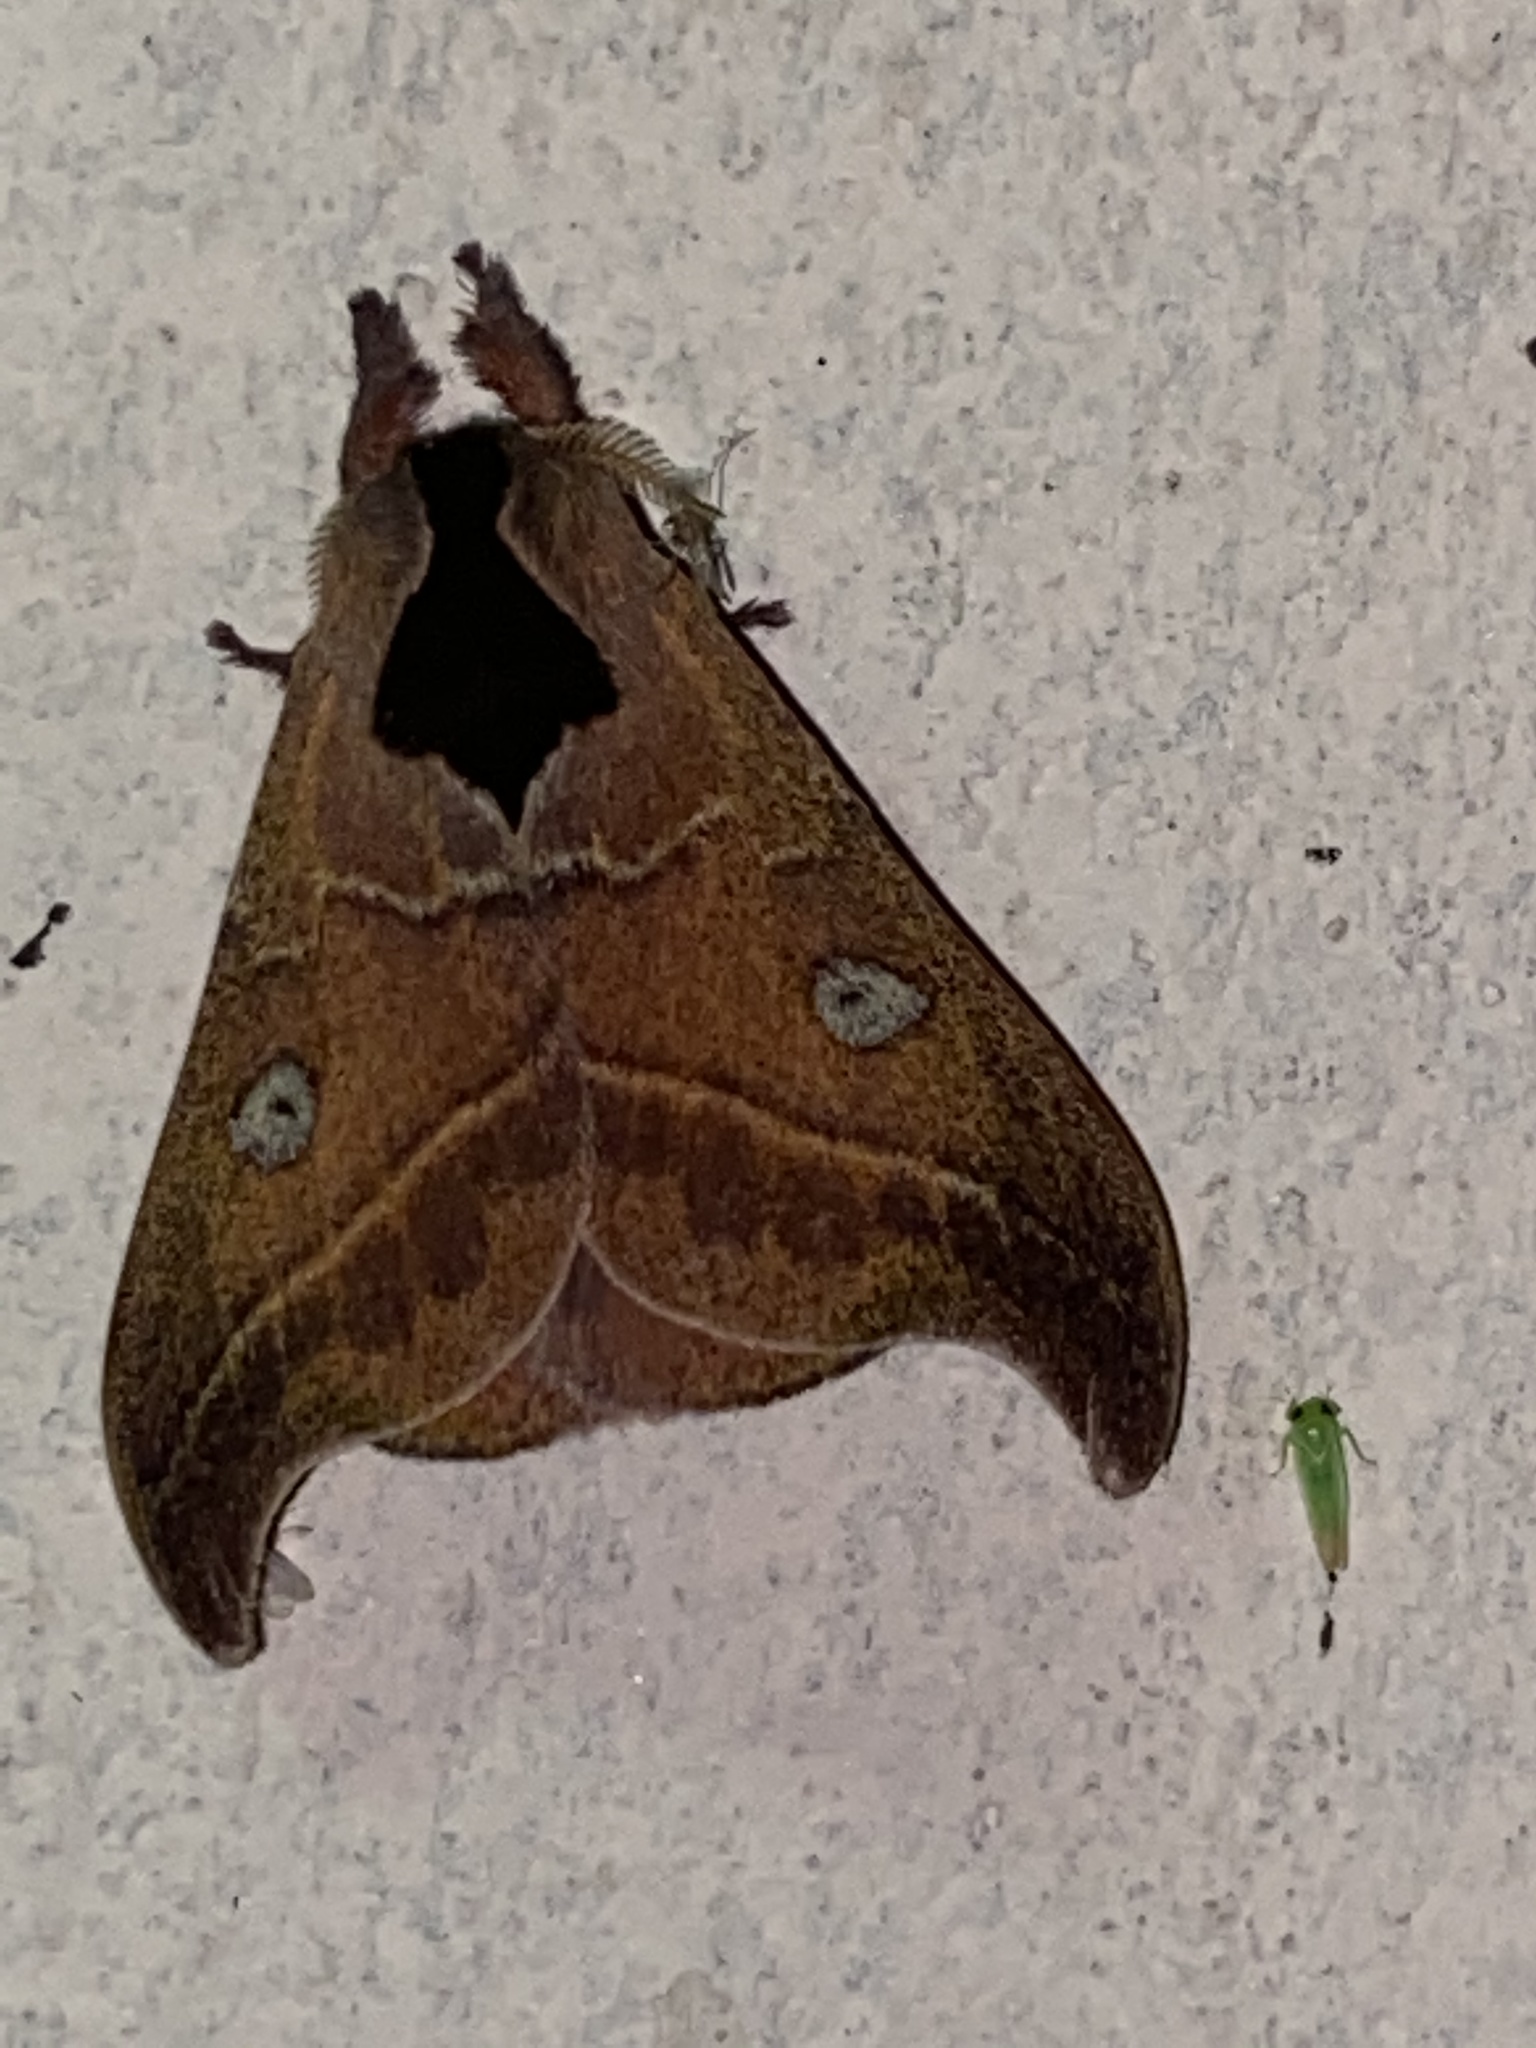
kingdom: Animalia
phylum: Arthropoda
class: Insecta
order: Lepidoptera
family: Saturniidae
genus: Hylesia
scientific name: Hylesia nanus
